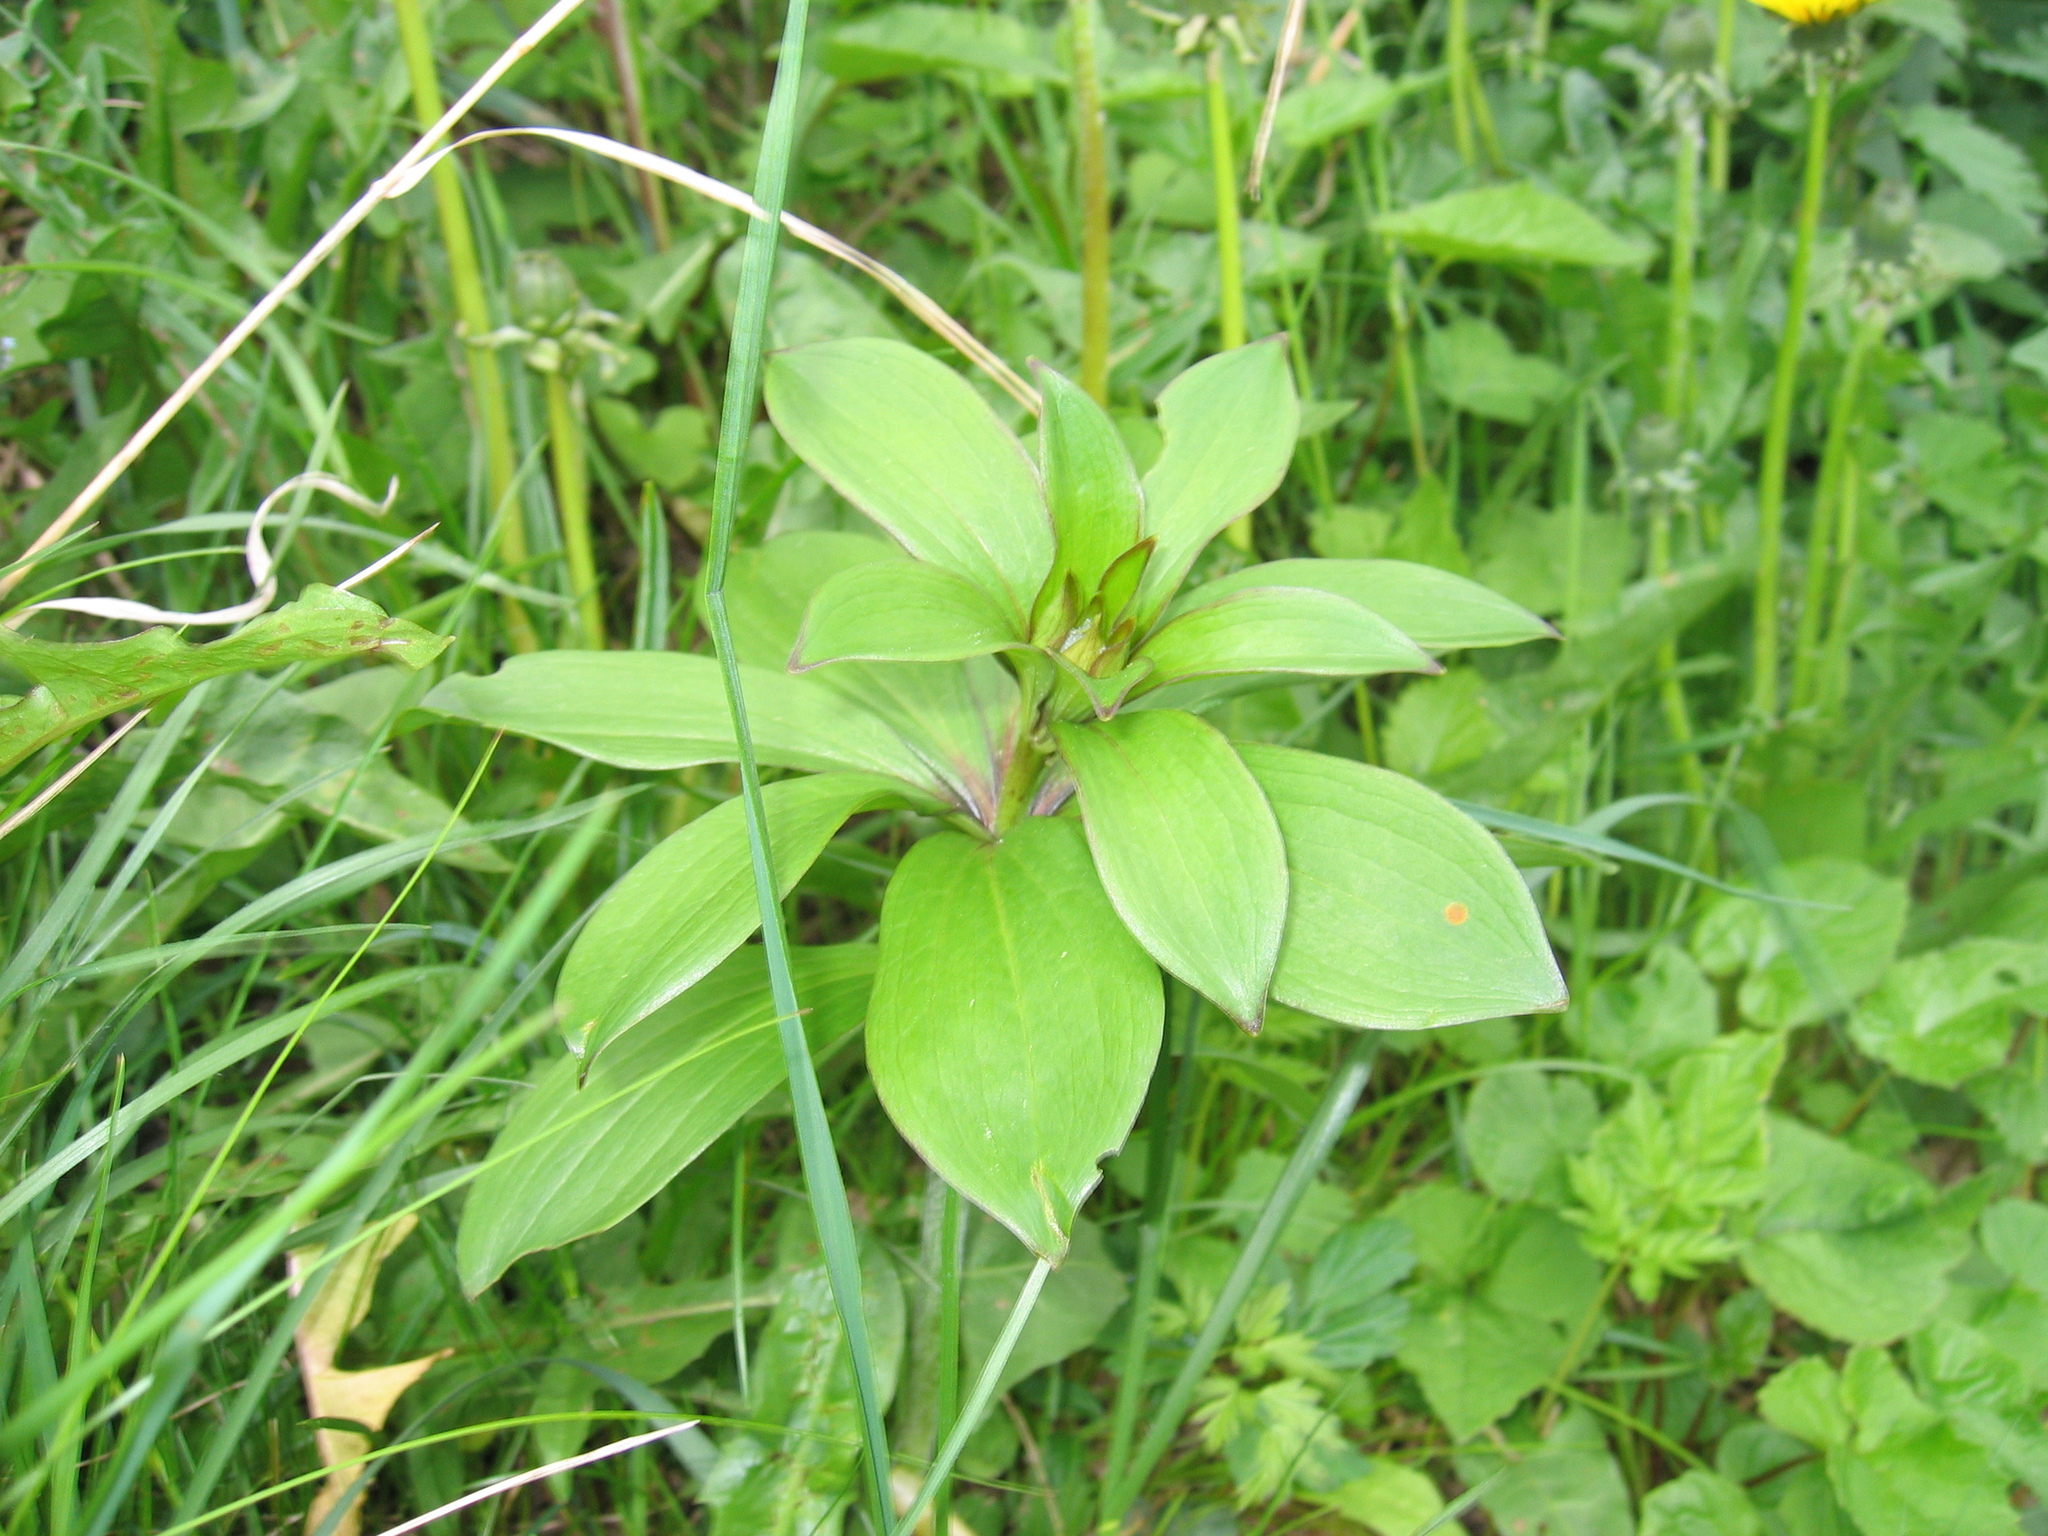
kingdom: Plantae
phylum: Tracheophyta
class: Liliopsida
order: Liliales
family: Liliaceae
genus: Lilium
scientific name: Lilium martagon
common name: Martagon lily
